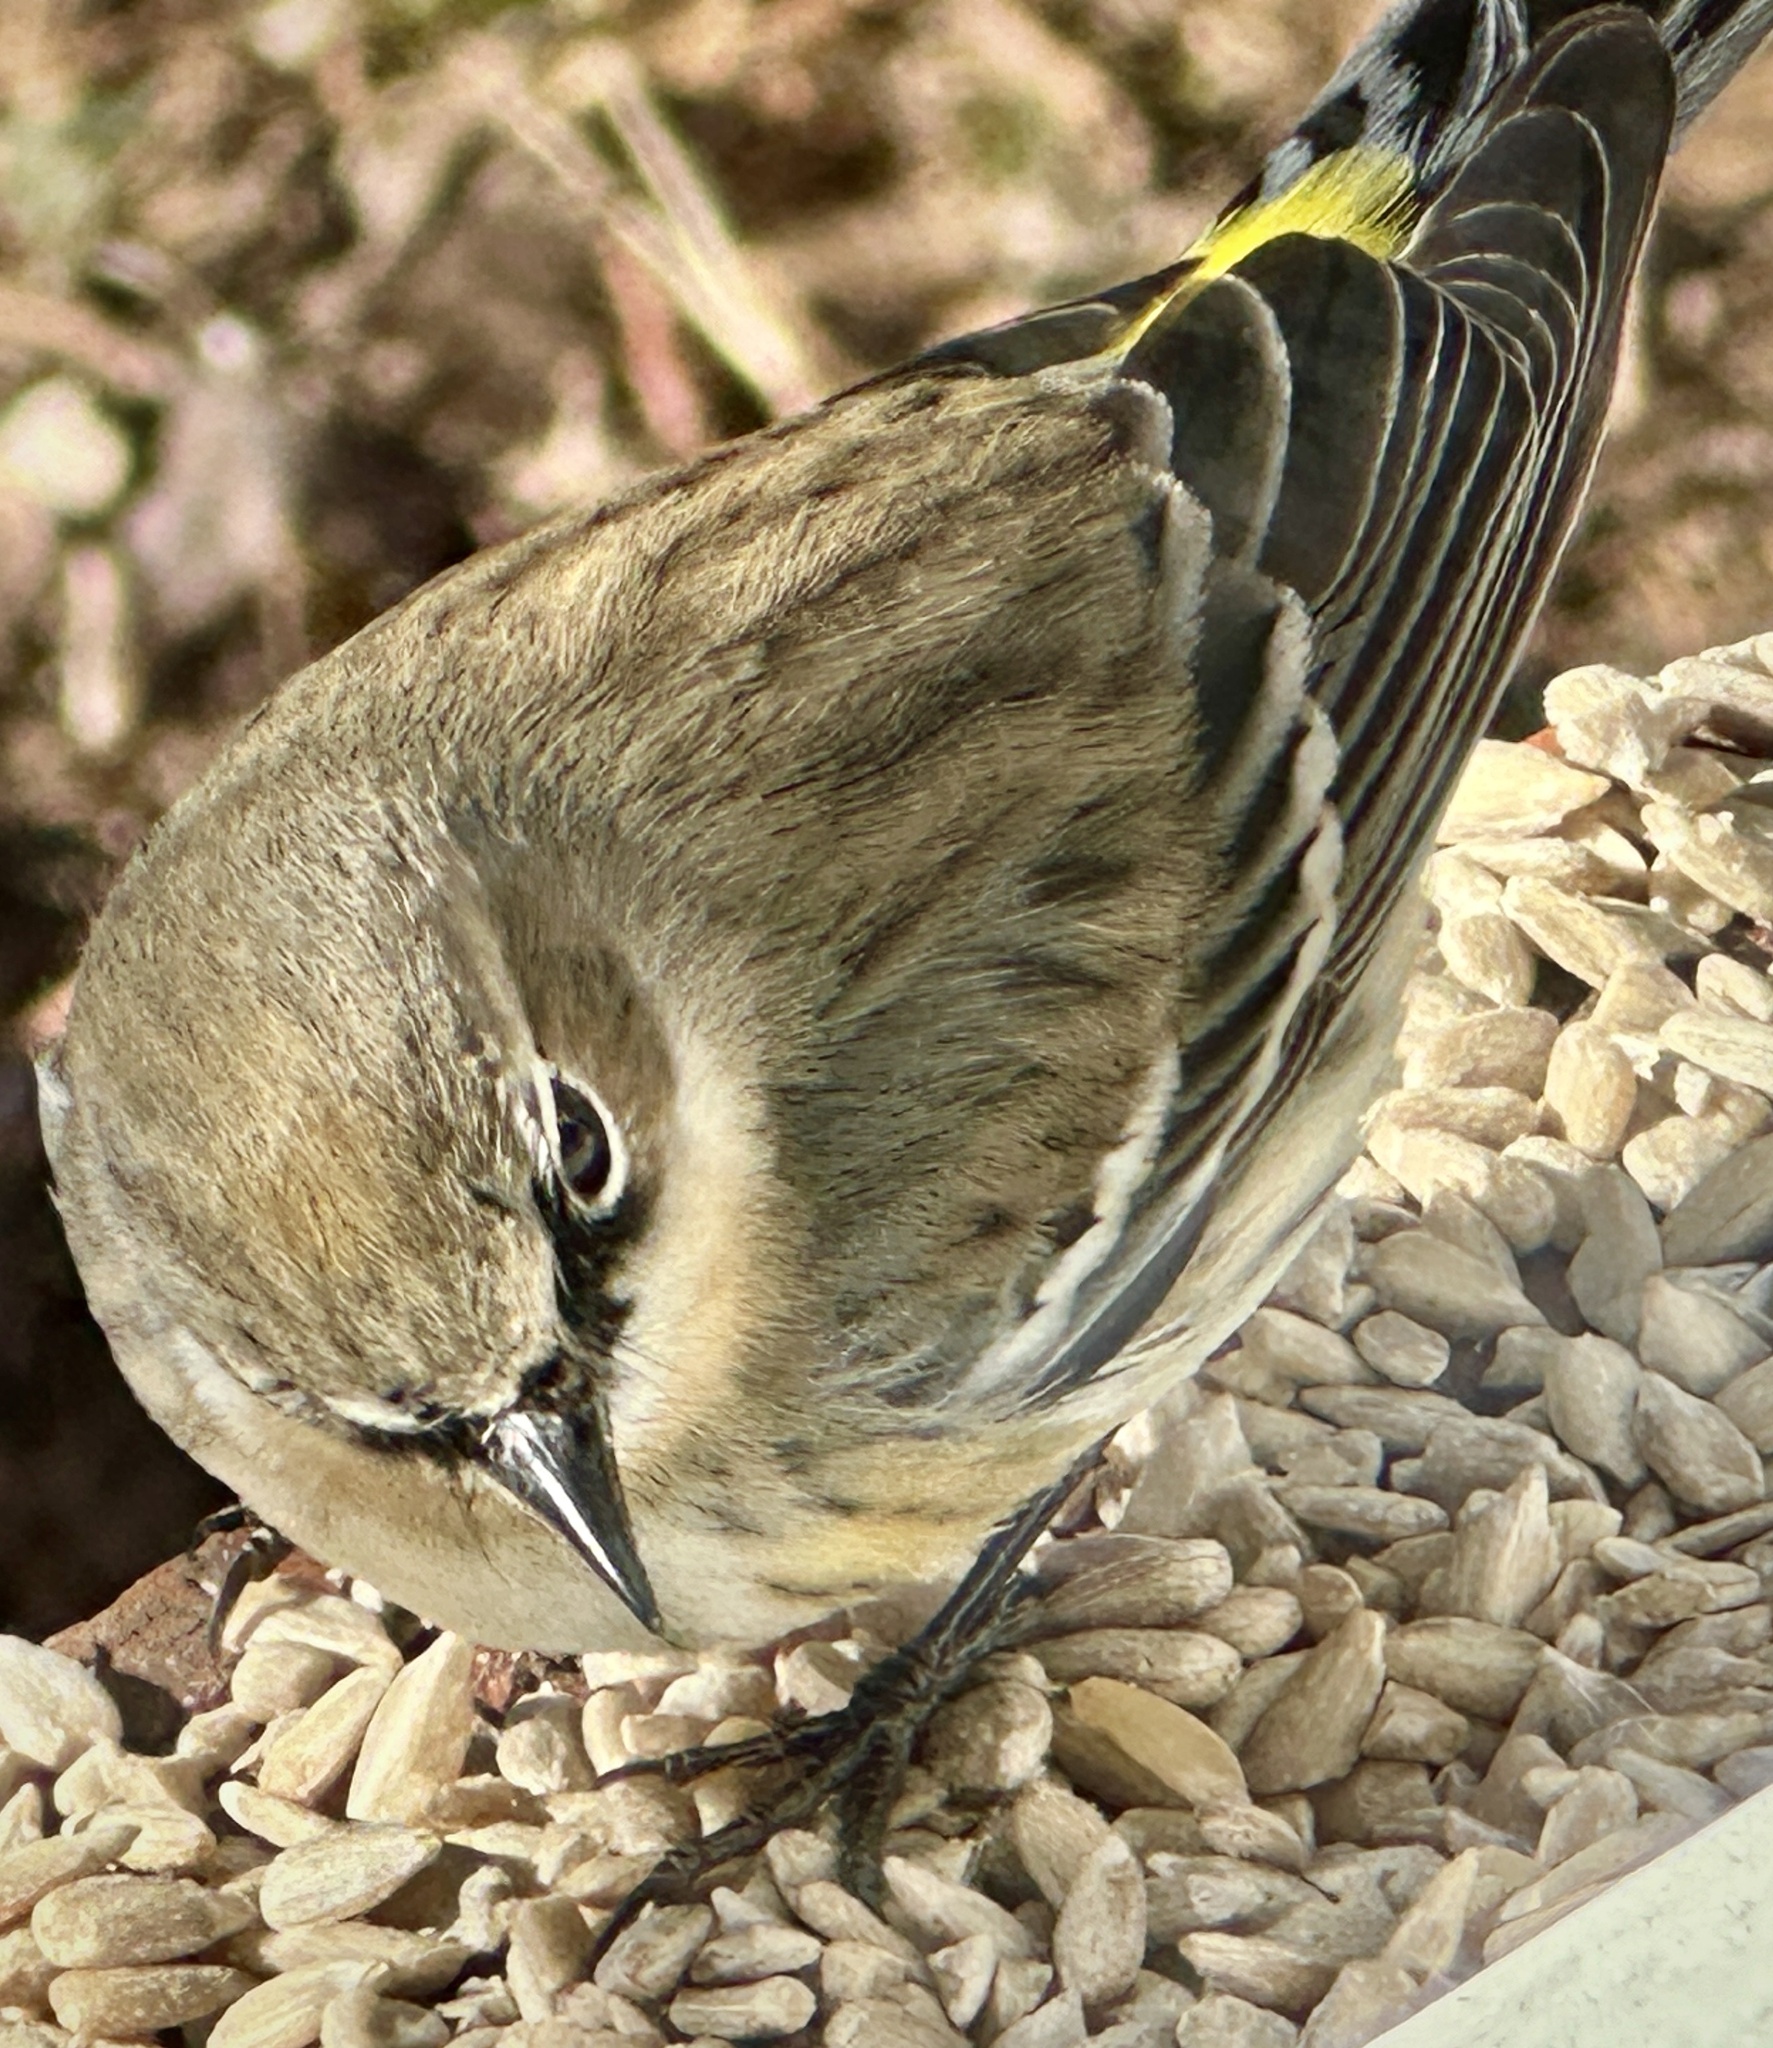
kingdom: Animalia
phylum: Chordata
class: Aves
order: Passeriformes
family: Parulidae
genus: Setophaga
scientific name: Setophaga coronata
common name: Myrtle warbler
